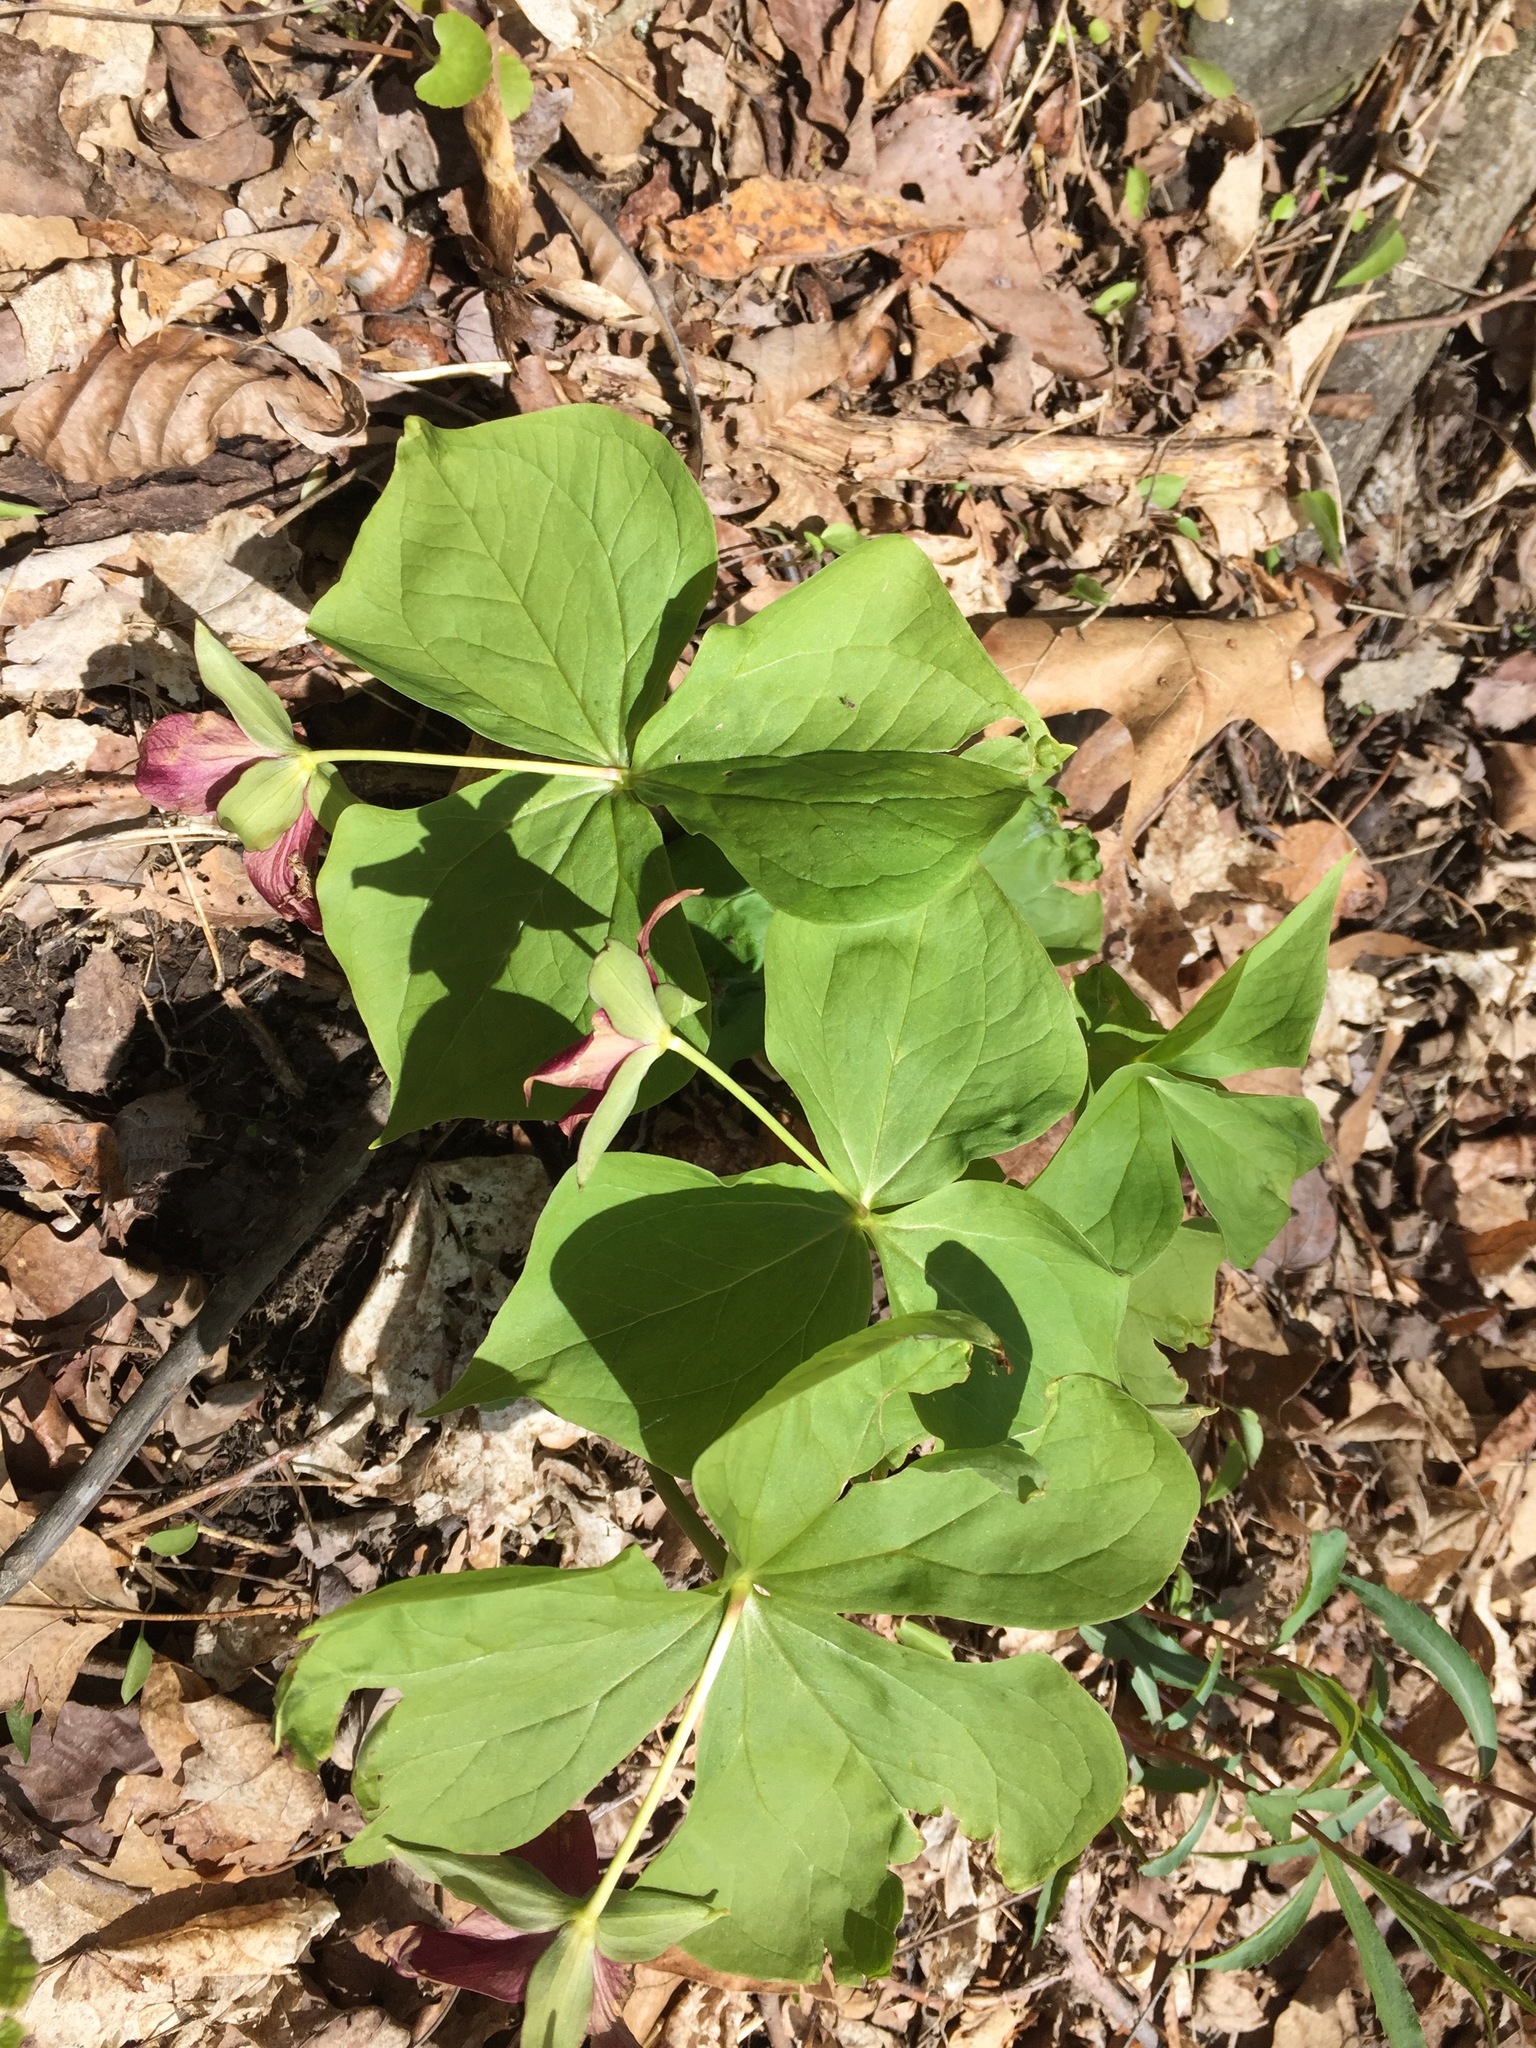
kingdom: Plantae
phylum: Tracheophyta
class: Liliopsida
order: Liliales
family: Melanthiaceae
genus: Trillium
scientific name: Trillium erectum
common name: Purple trillium
